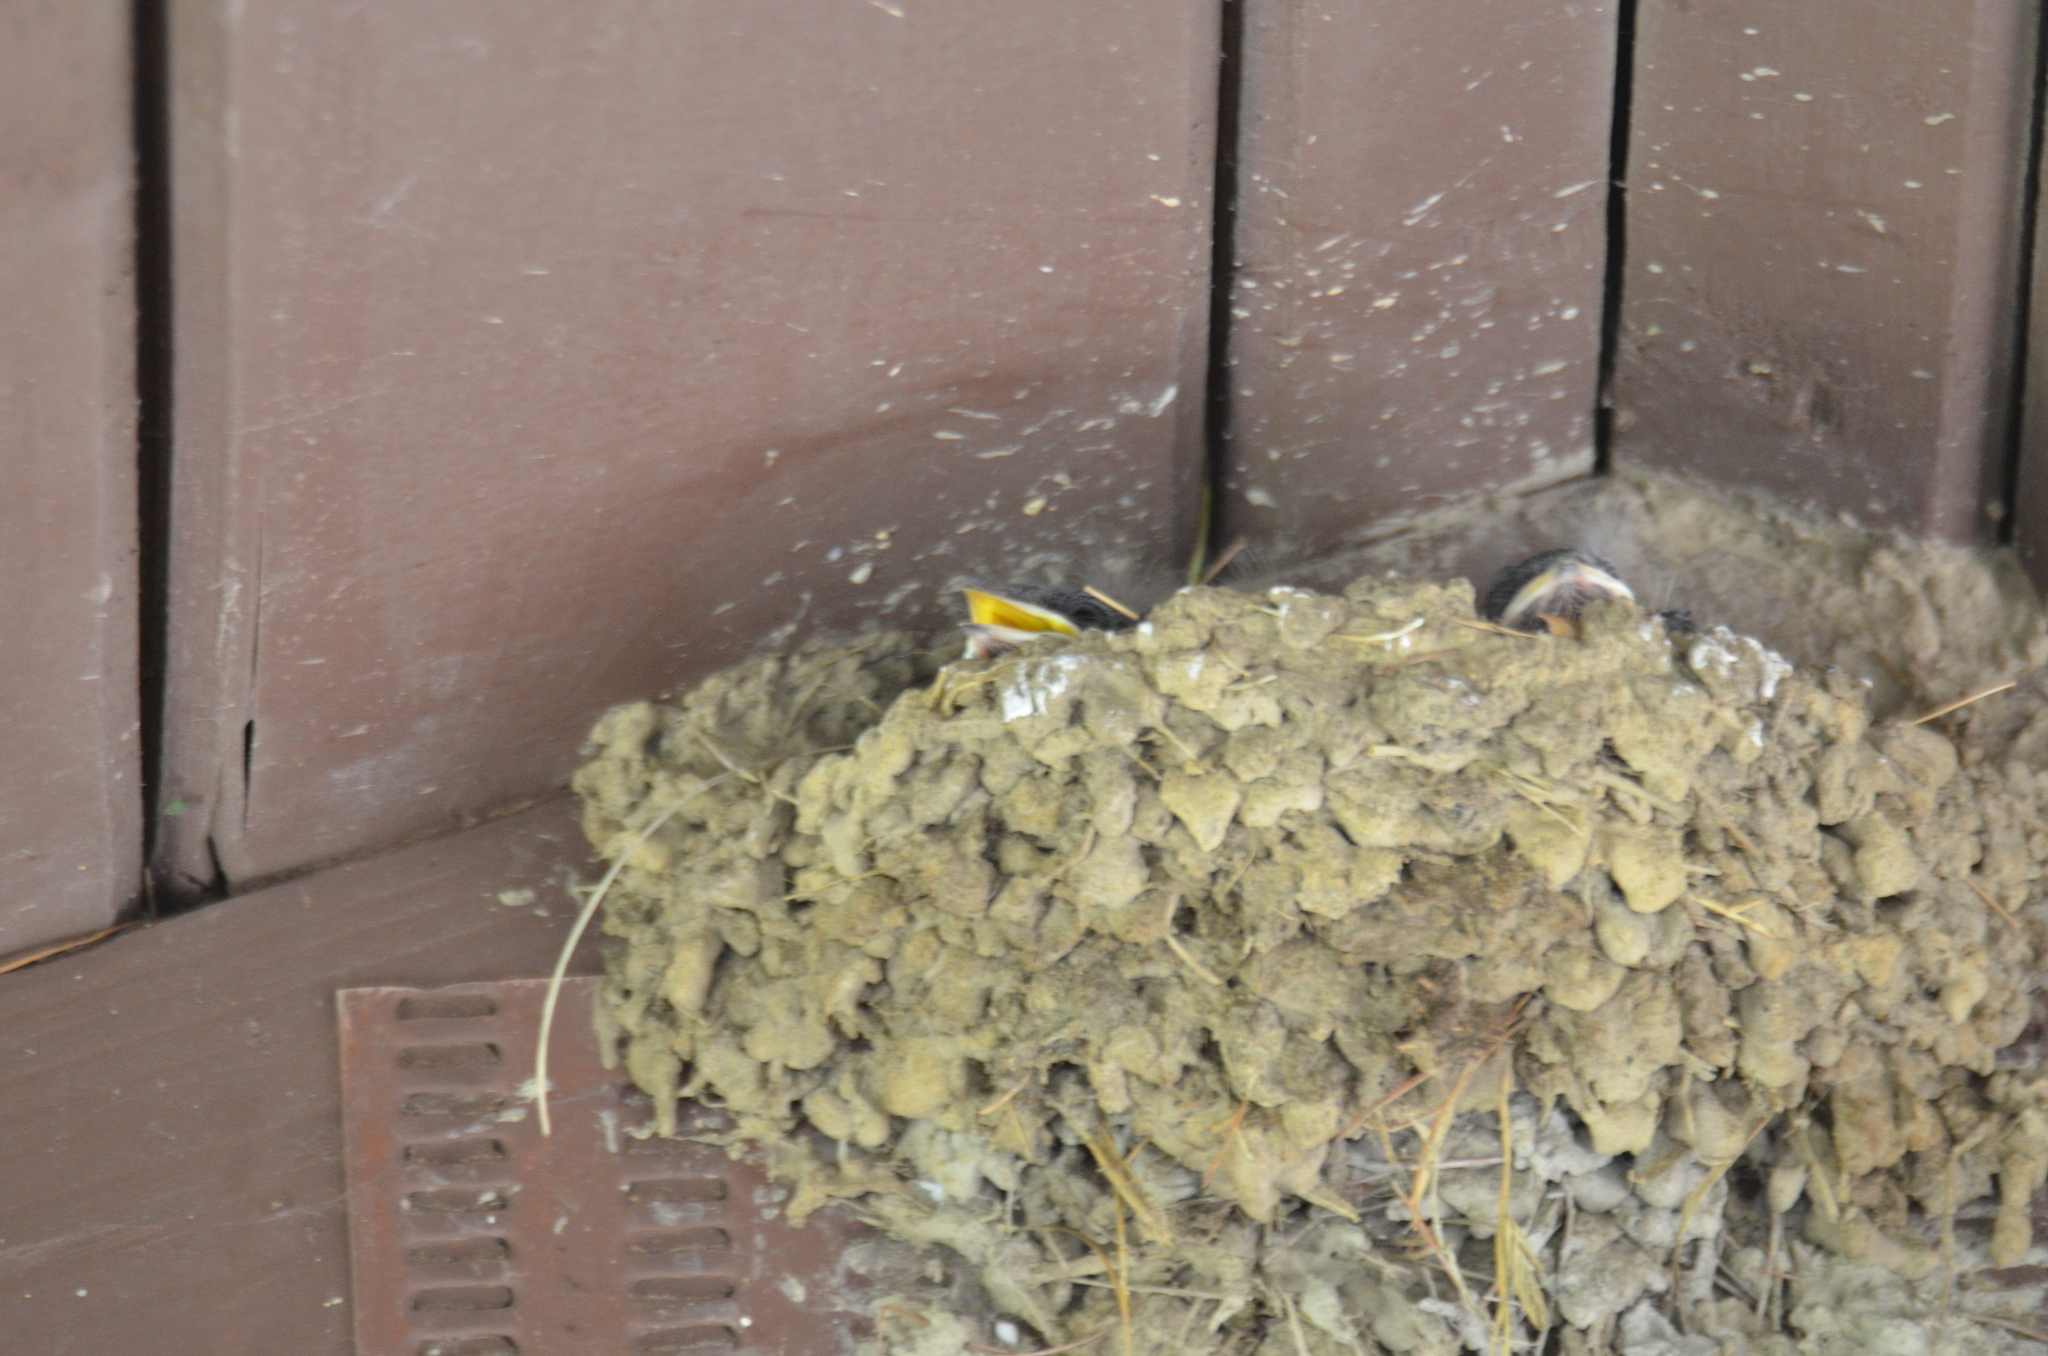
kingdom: Animalia
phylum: Chordata
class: Aves
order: Passeriformes
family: Hirundinidae
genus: Hirundo
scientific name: Hirundo rustica
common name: Barn swallow
